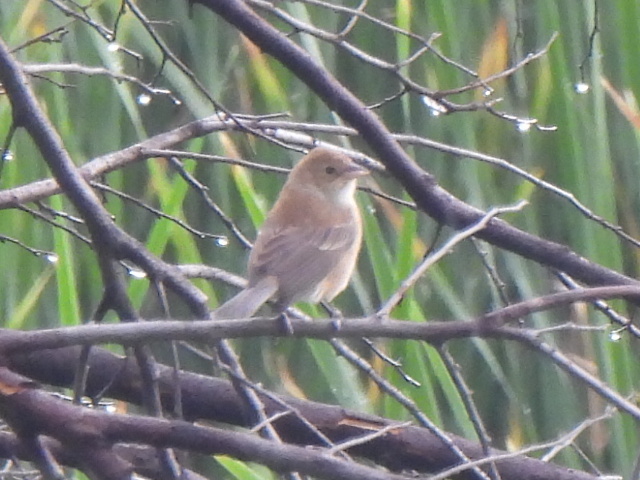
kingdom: Animalia
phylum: Chordata
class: Aves
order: Passeriformes
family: Cardinalidae
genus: Passerina
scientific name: Passerina cyanea
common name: Indigo bunting
